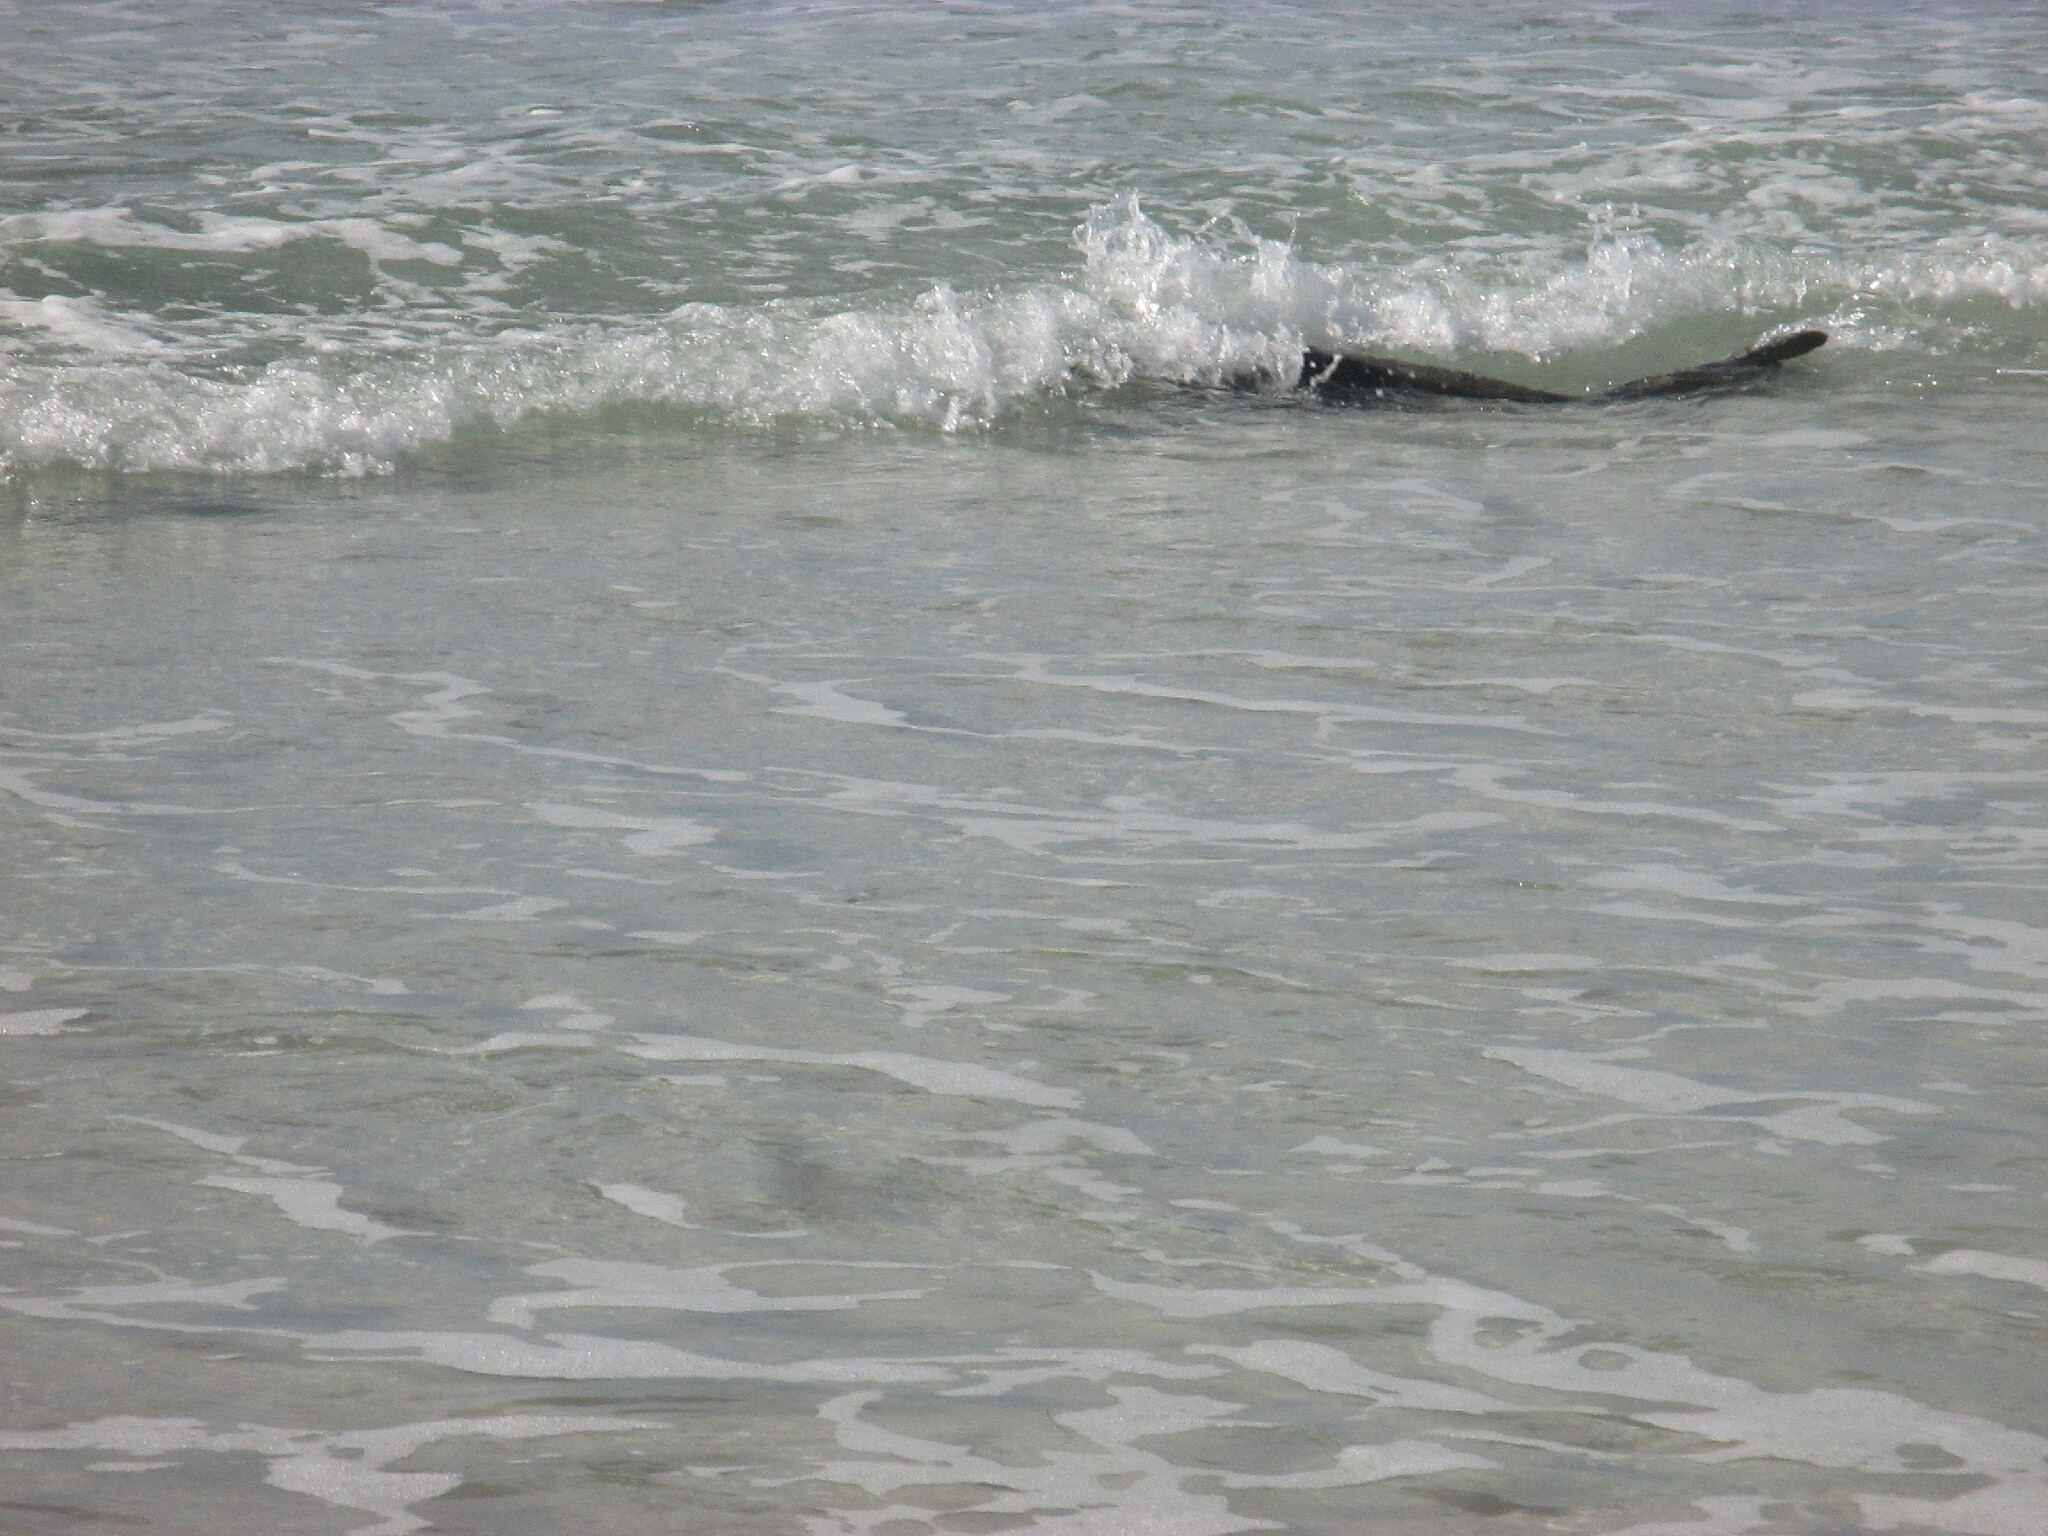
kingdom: Animalia
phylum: Chordata
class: Mammalia
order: Carnivora
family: Phocidae
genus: Mirounga
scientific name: Mirounga angustirostris
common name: Northern elephant seal
